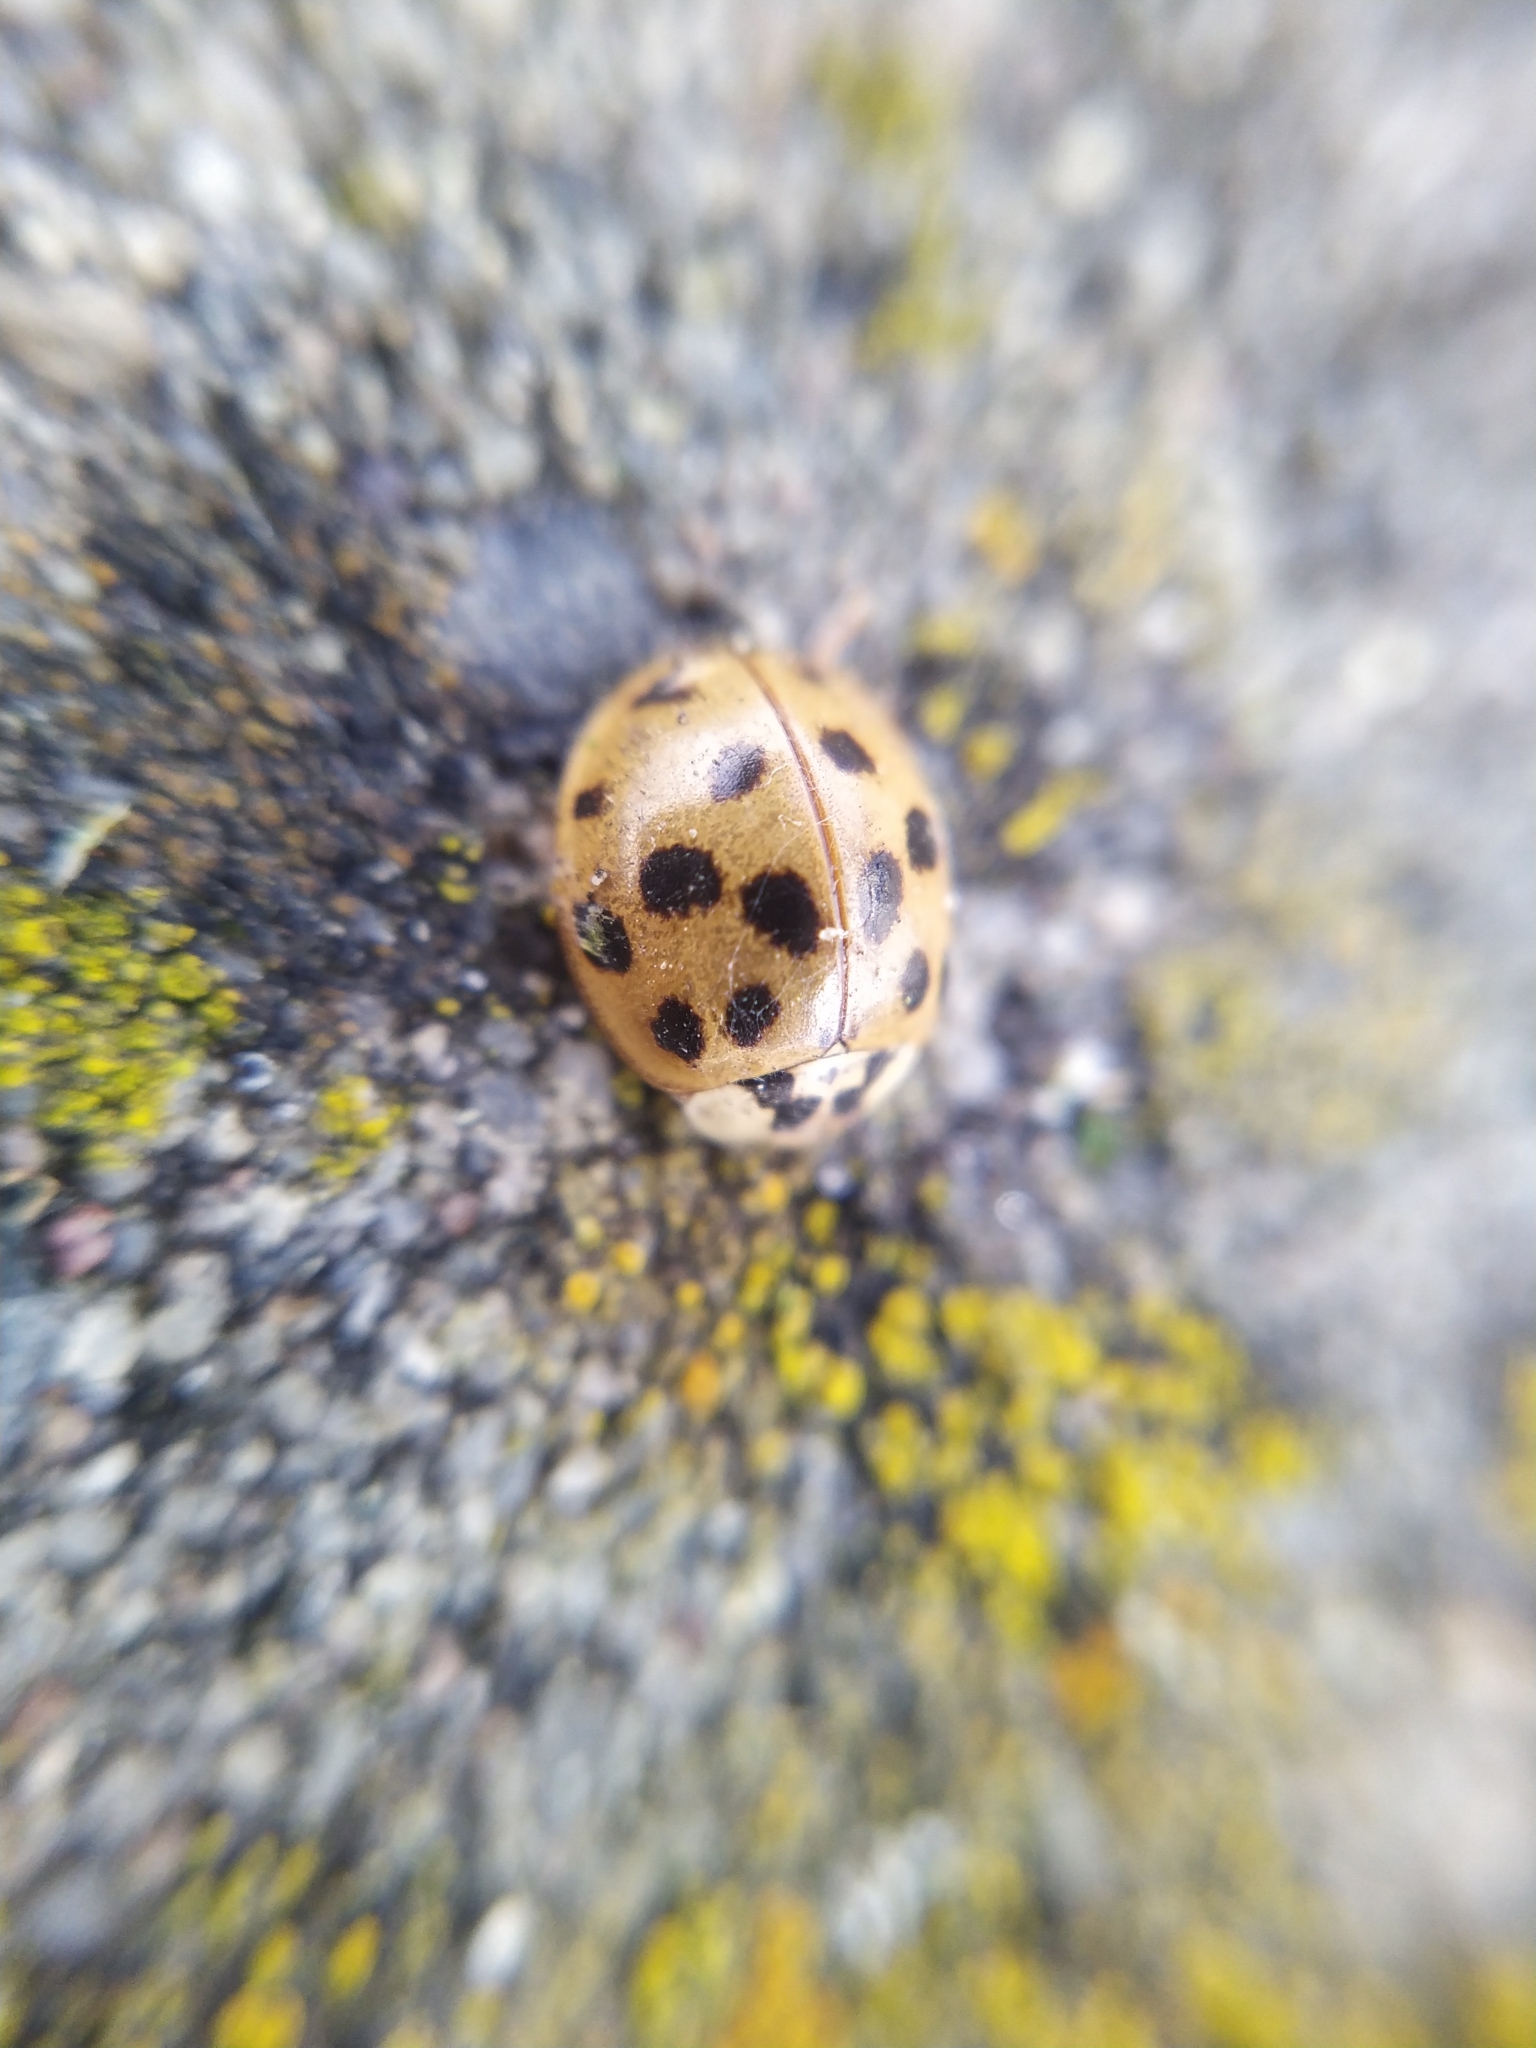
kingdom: Animalia
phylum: Arthropoda
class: Insecta
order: Coleoptera
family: Coccinellidae
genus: Harmonia
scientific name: Harmonia axyridis
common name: Harlequin ladybird
